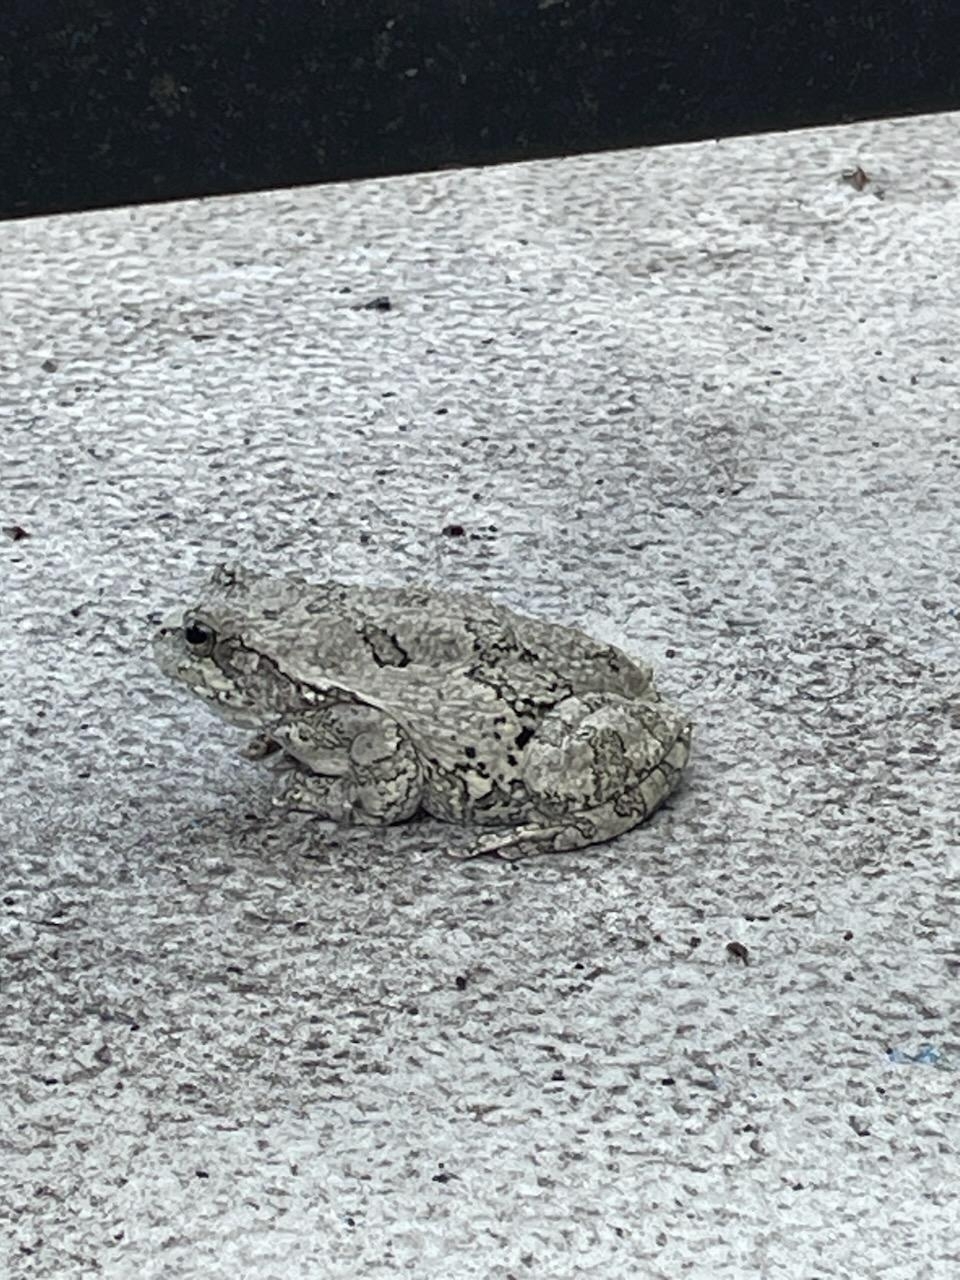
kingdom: Animalia
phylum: Chordata
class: Amphibia
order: Anura
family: Hylidae
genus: Hyla
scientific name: Hyla
